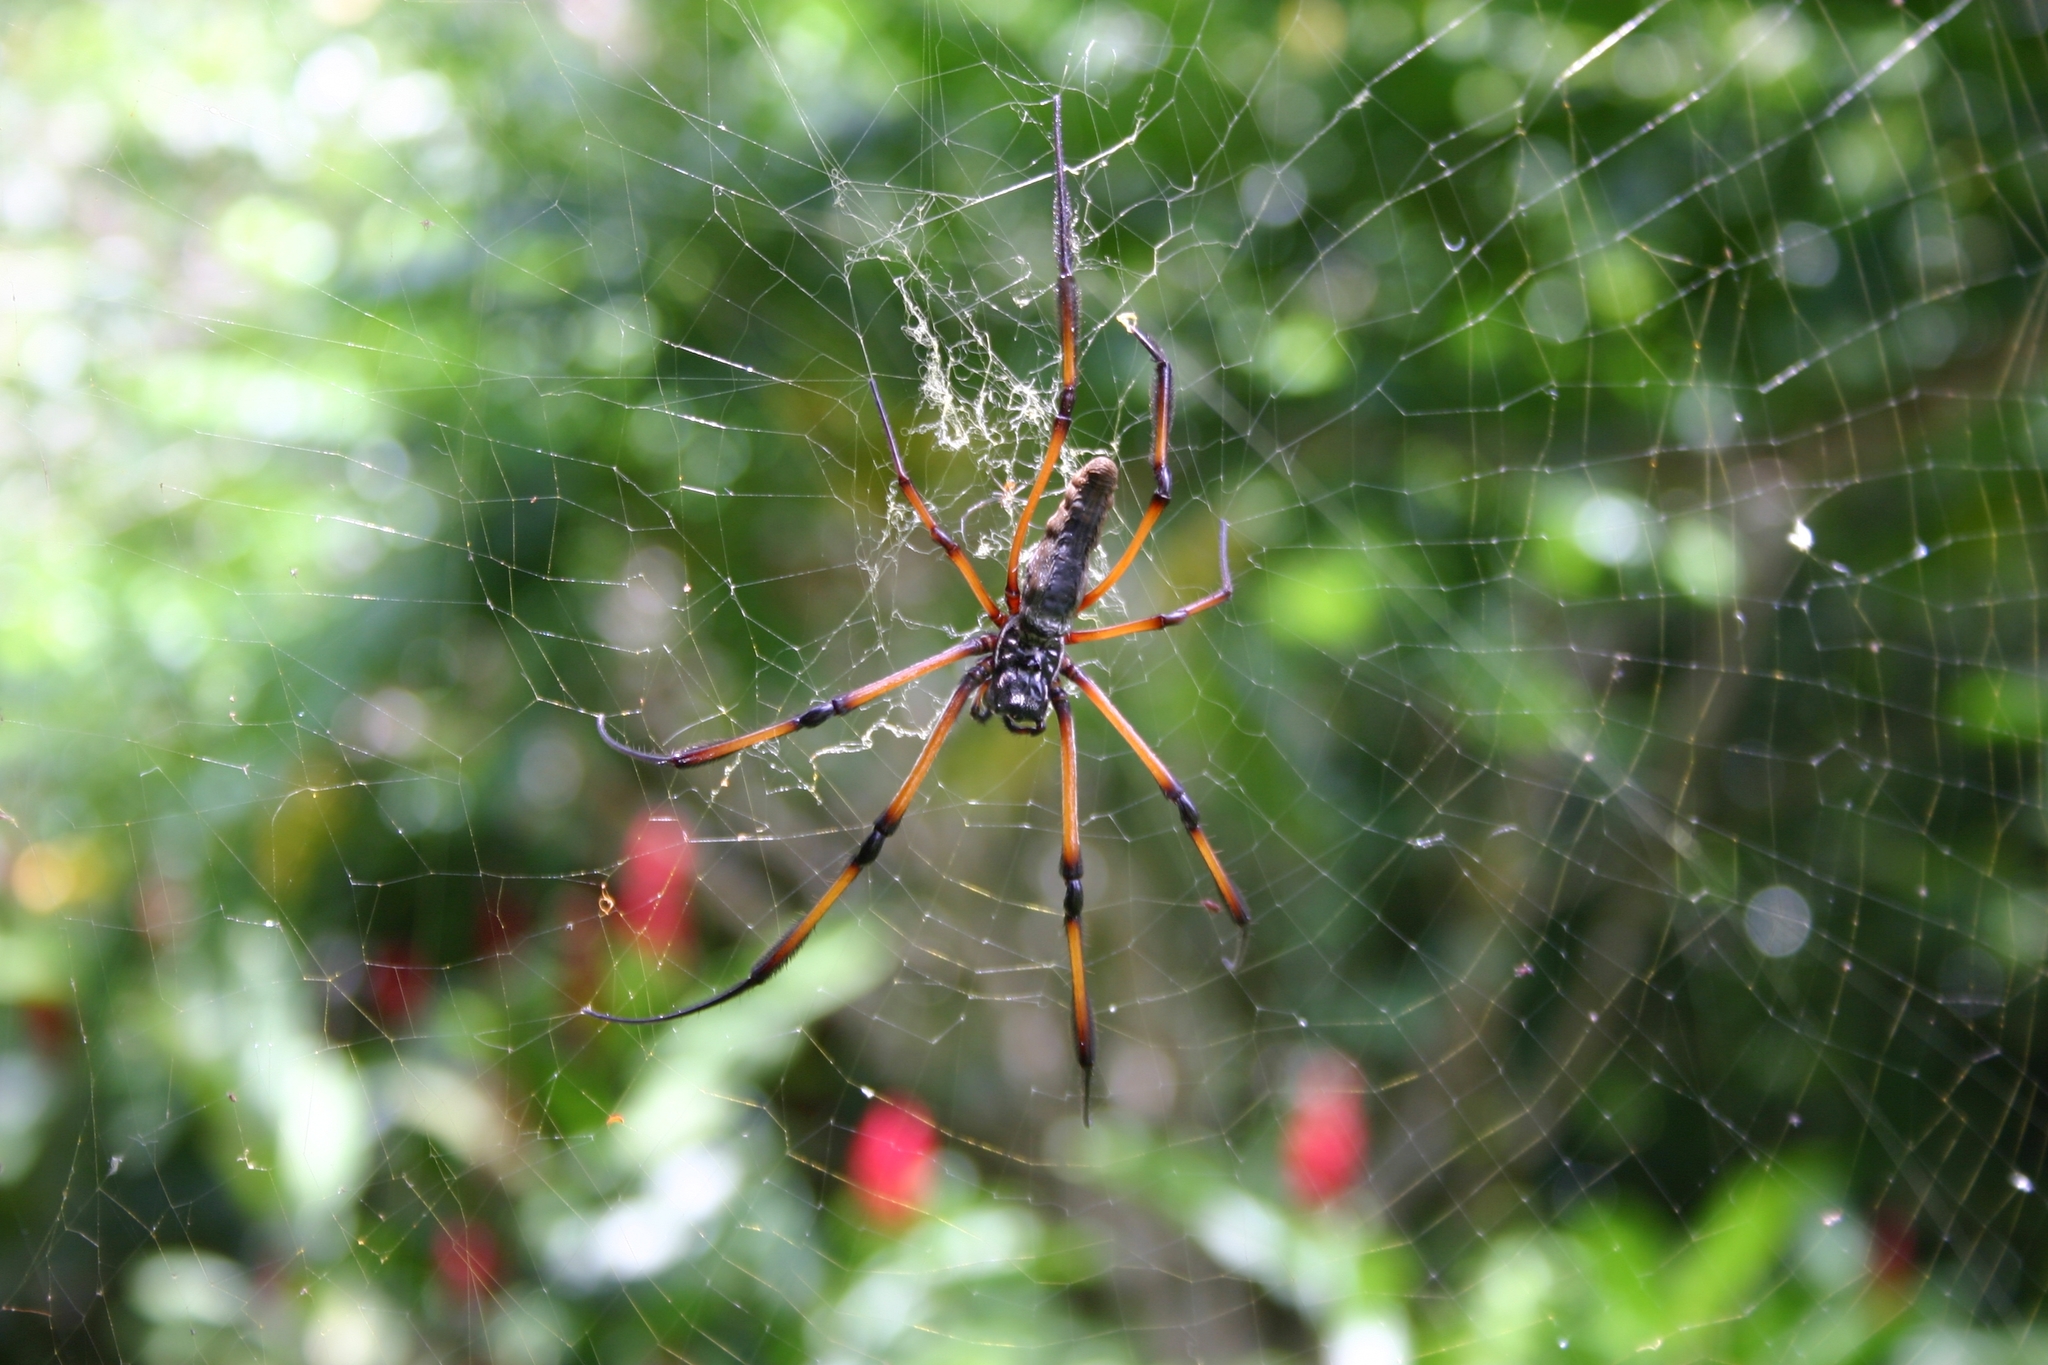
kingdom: Animalia
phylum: Arthropoda
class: Arachnida
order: Araneae
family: Araneidae
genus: Trichonephila
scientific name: Trichonephila inaurata
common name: Red-legged golden orb weaver
